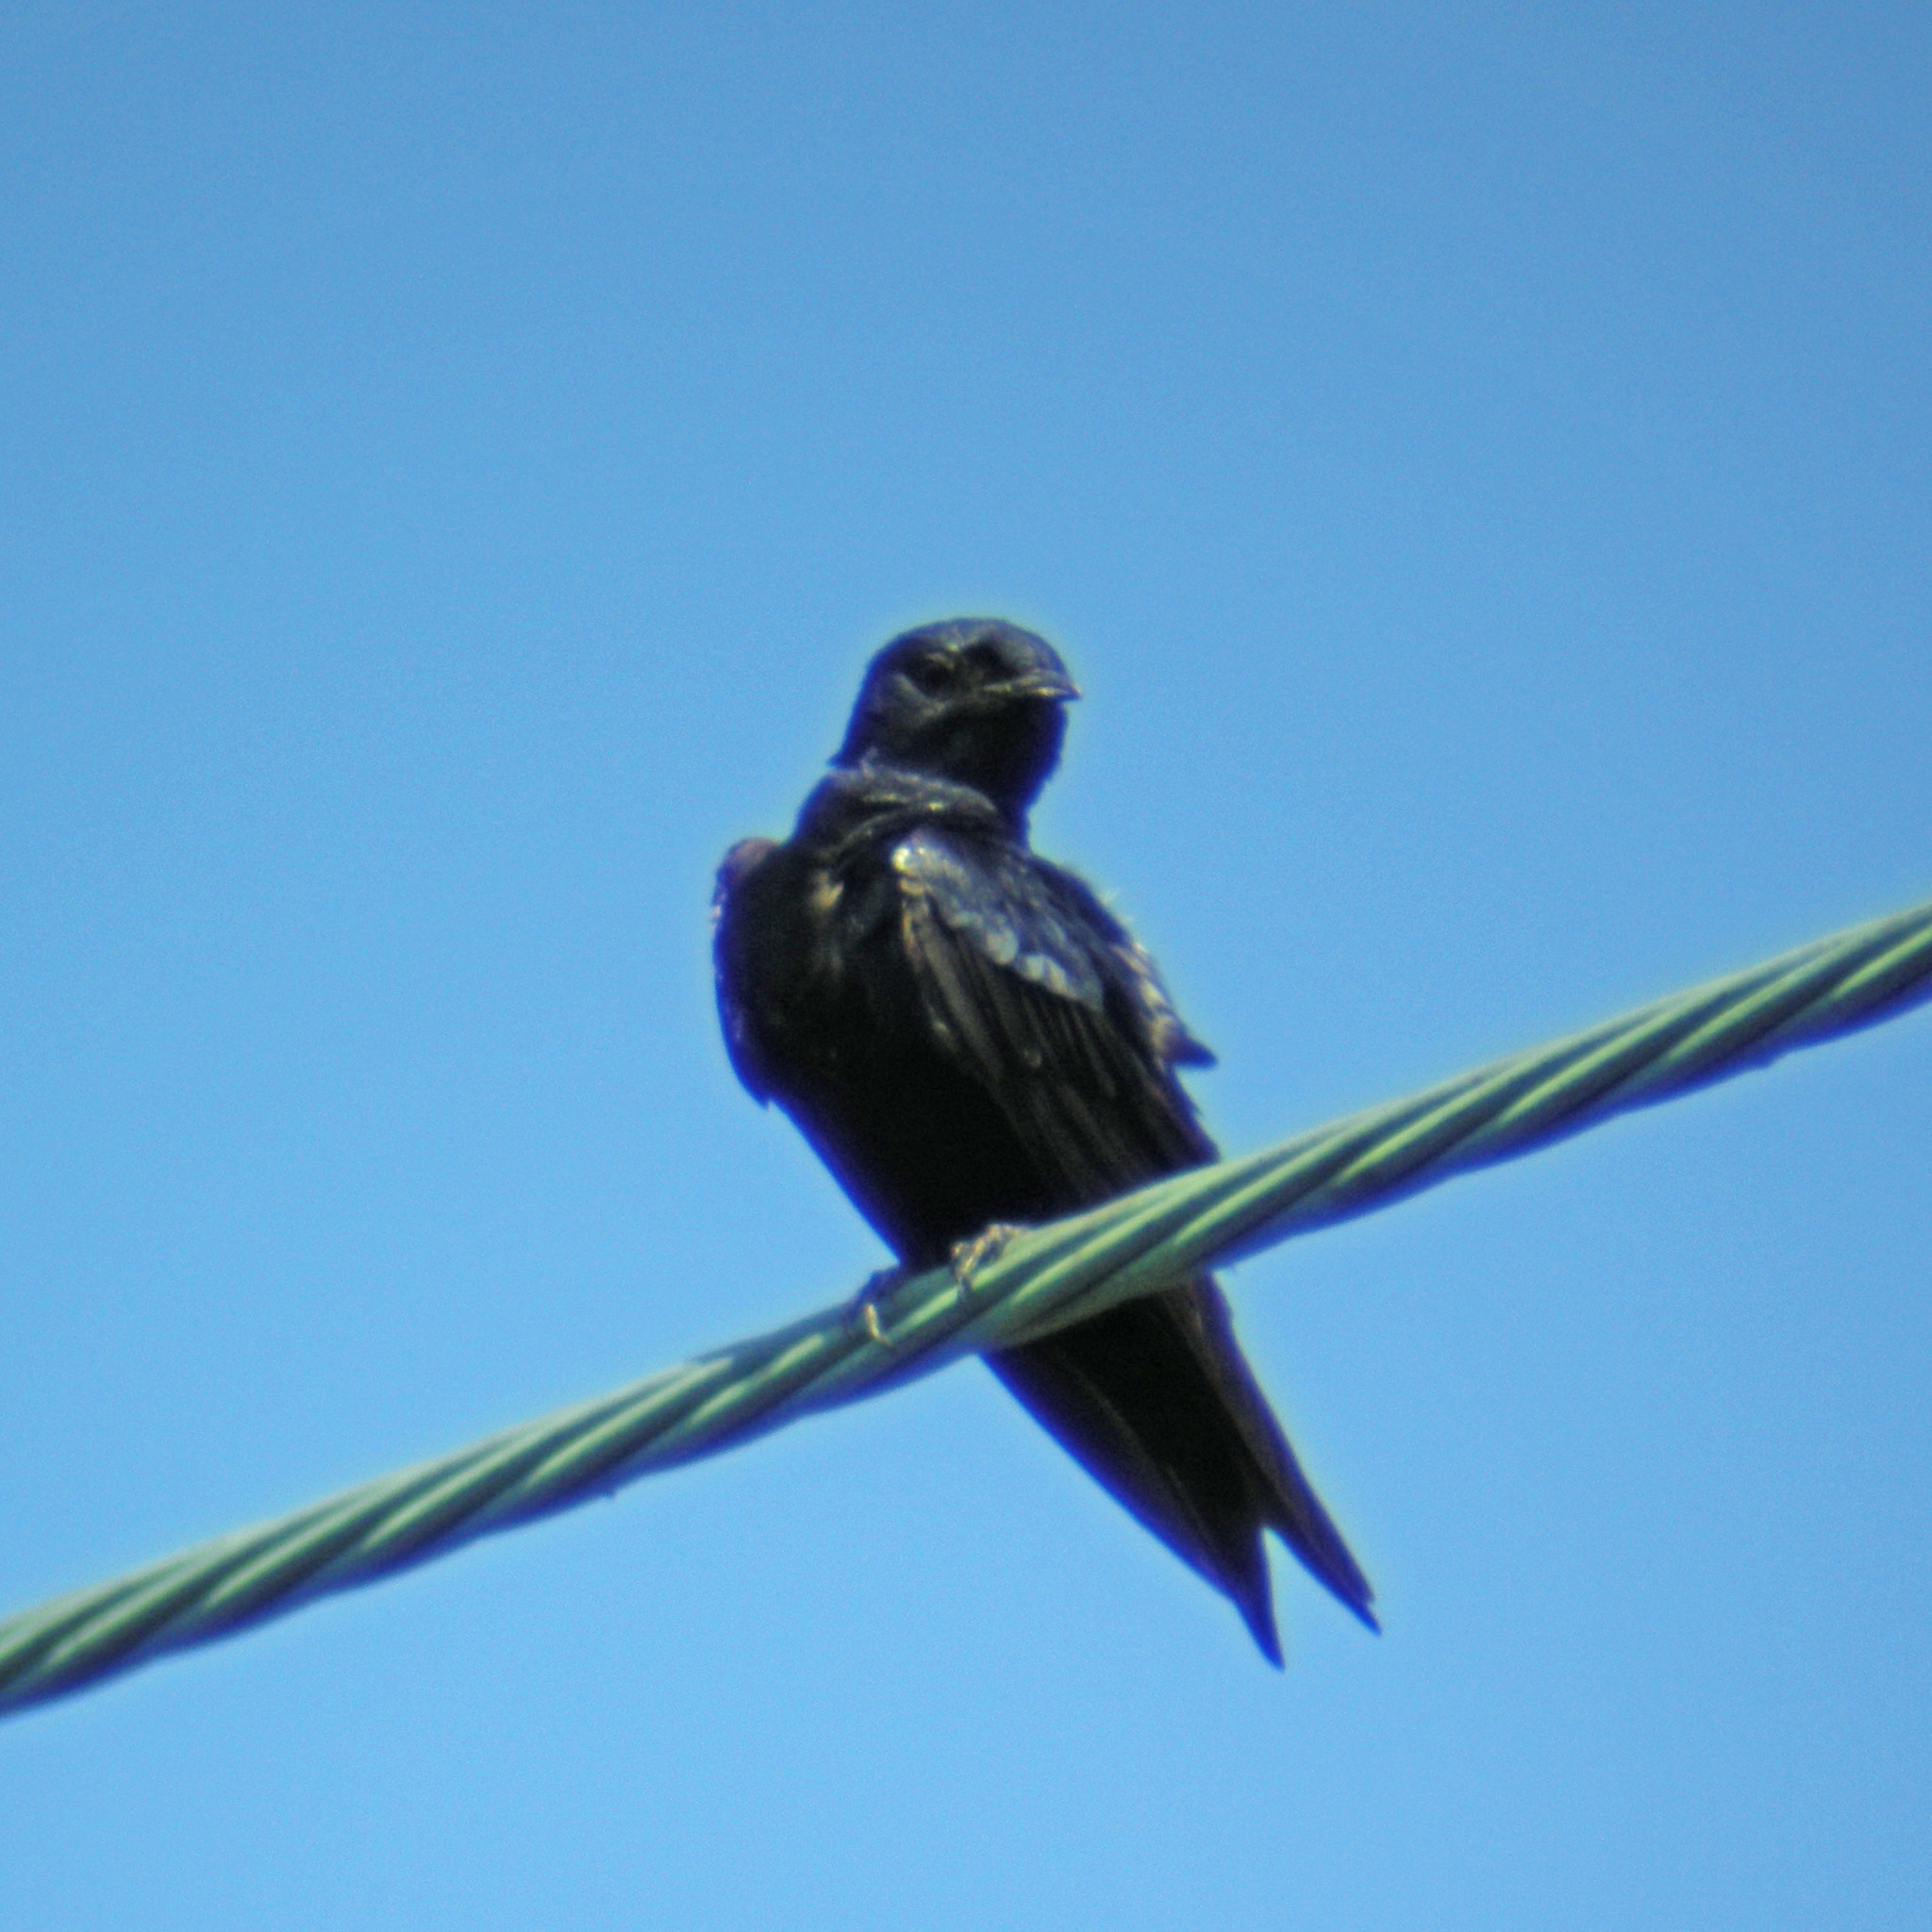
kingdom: Animalia
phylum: Chordata
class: Aves
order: Passeriformes
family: Hirundinidae
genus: Progne
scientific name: Progne subis
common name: Purple martin
